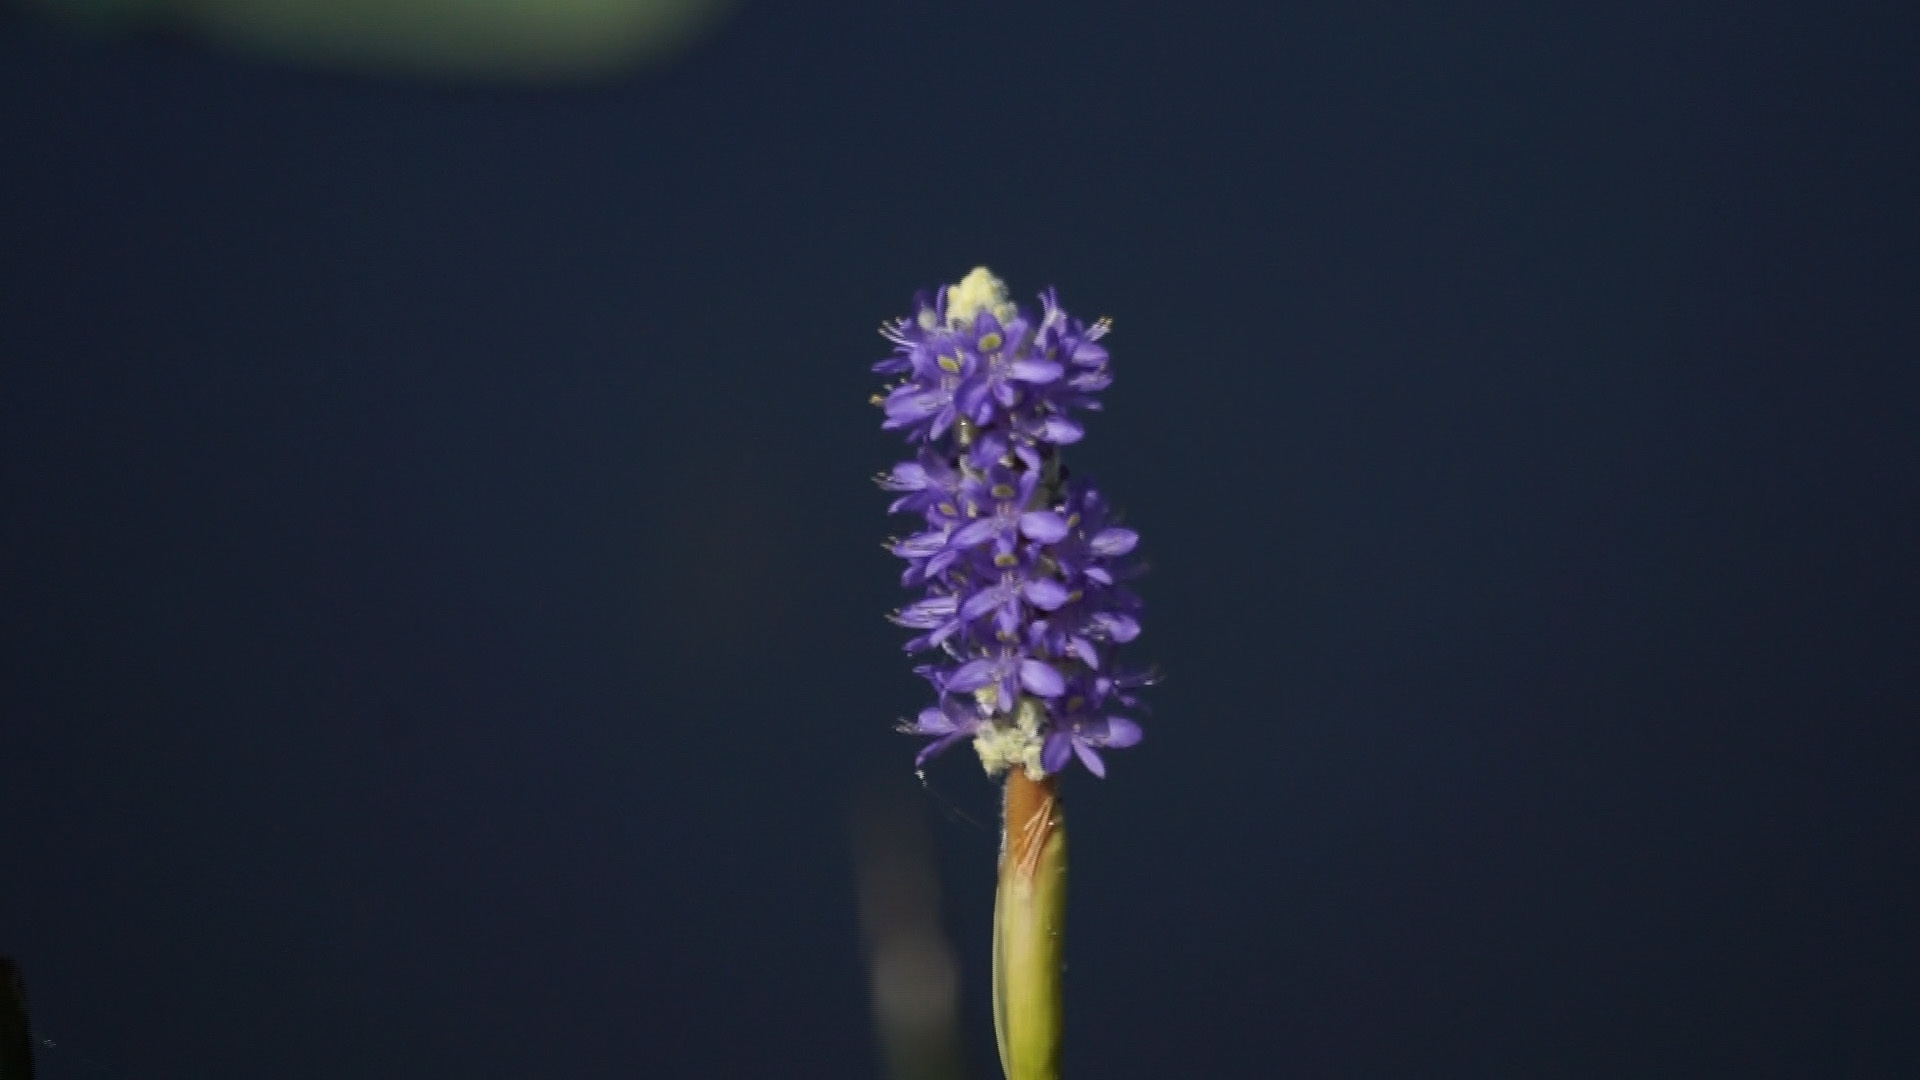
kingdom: Plantae
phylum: Tracheophyta
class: Liliopsida
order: Commelinales
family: Pontederiaceae
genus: Pontederia
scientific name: Pontederia cordata
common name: Pickerelweed
